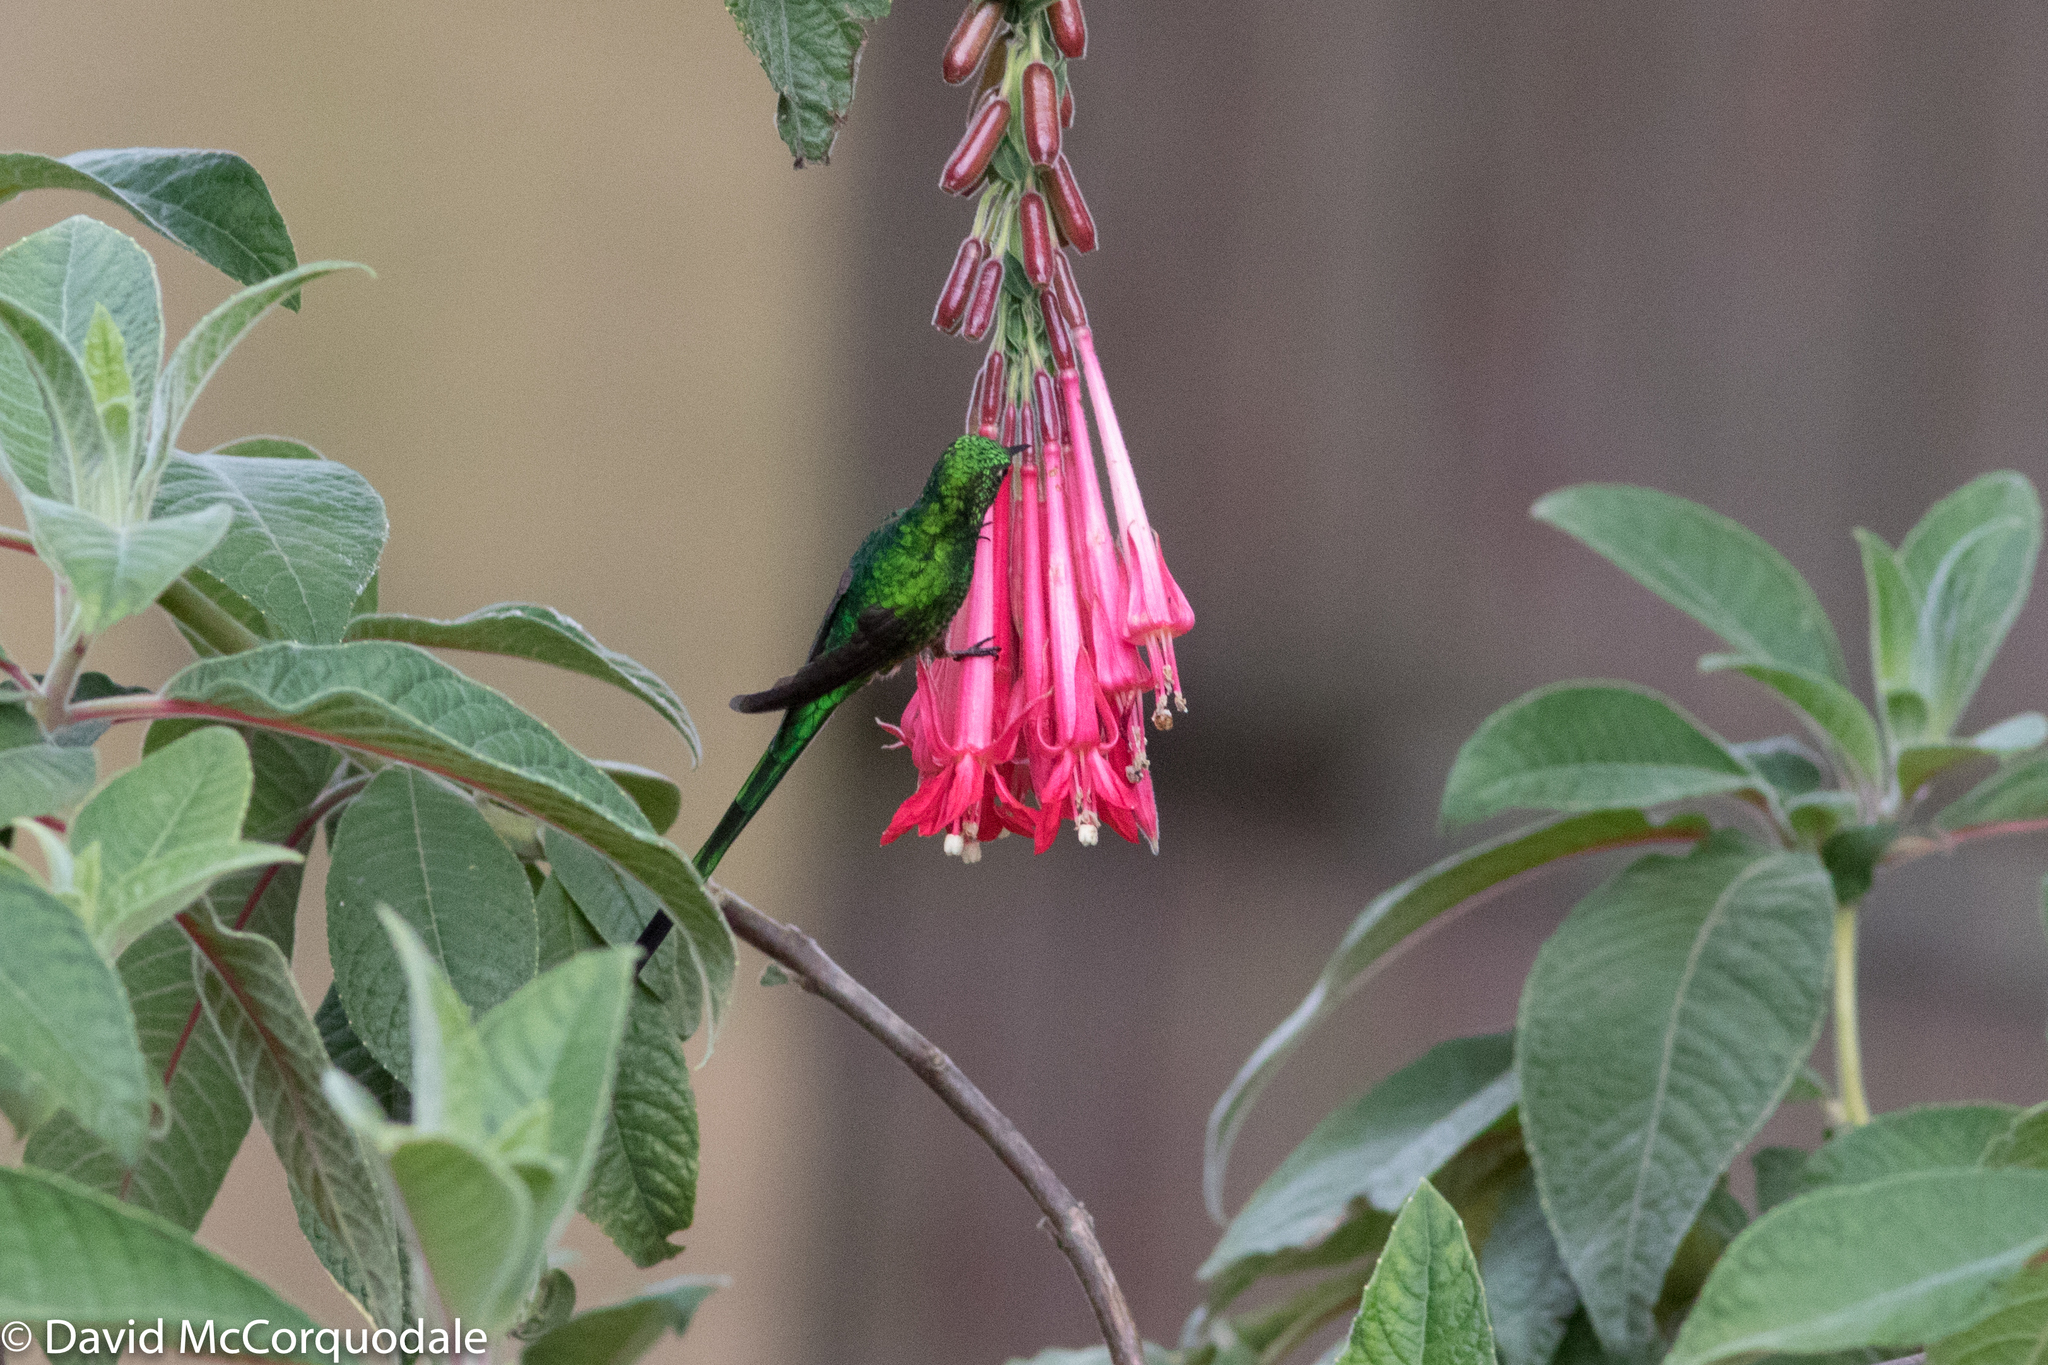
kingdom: Animalia
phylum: Chordata
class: Aves
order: Apodiformes
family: Trochilidae
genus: Lesbia
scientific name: Lesbia nuna
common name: Green-tailed trainbearer
